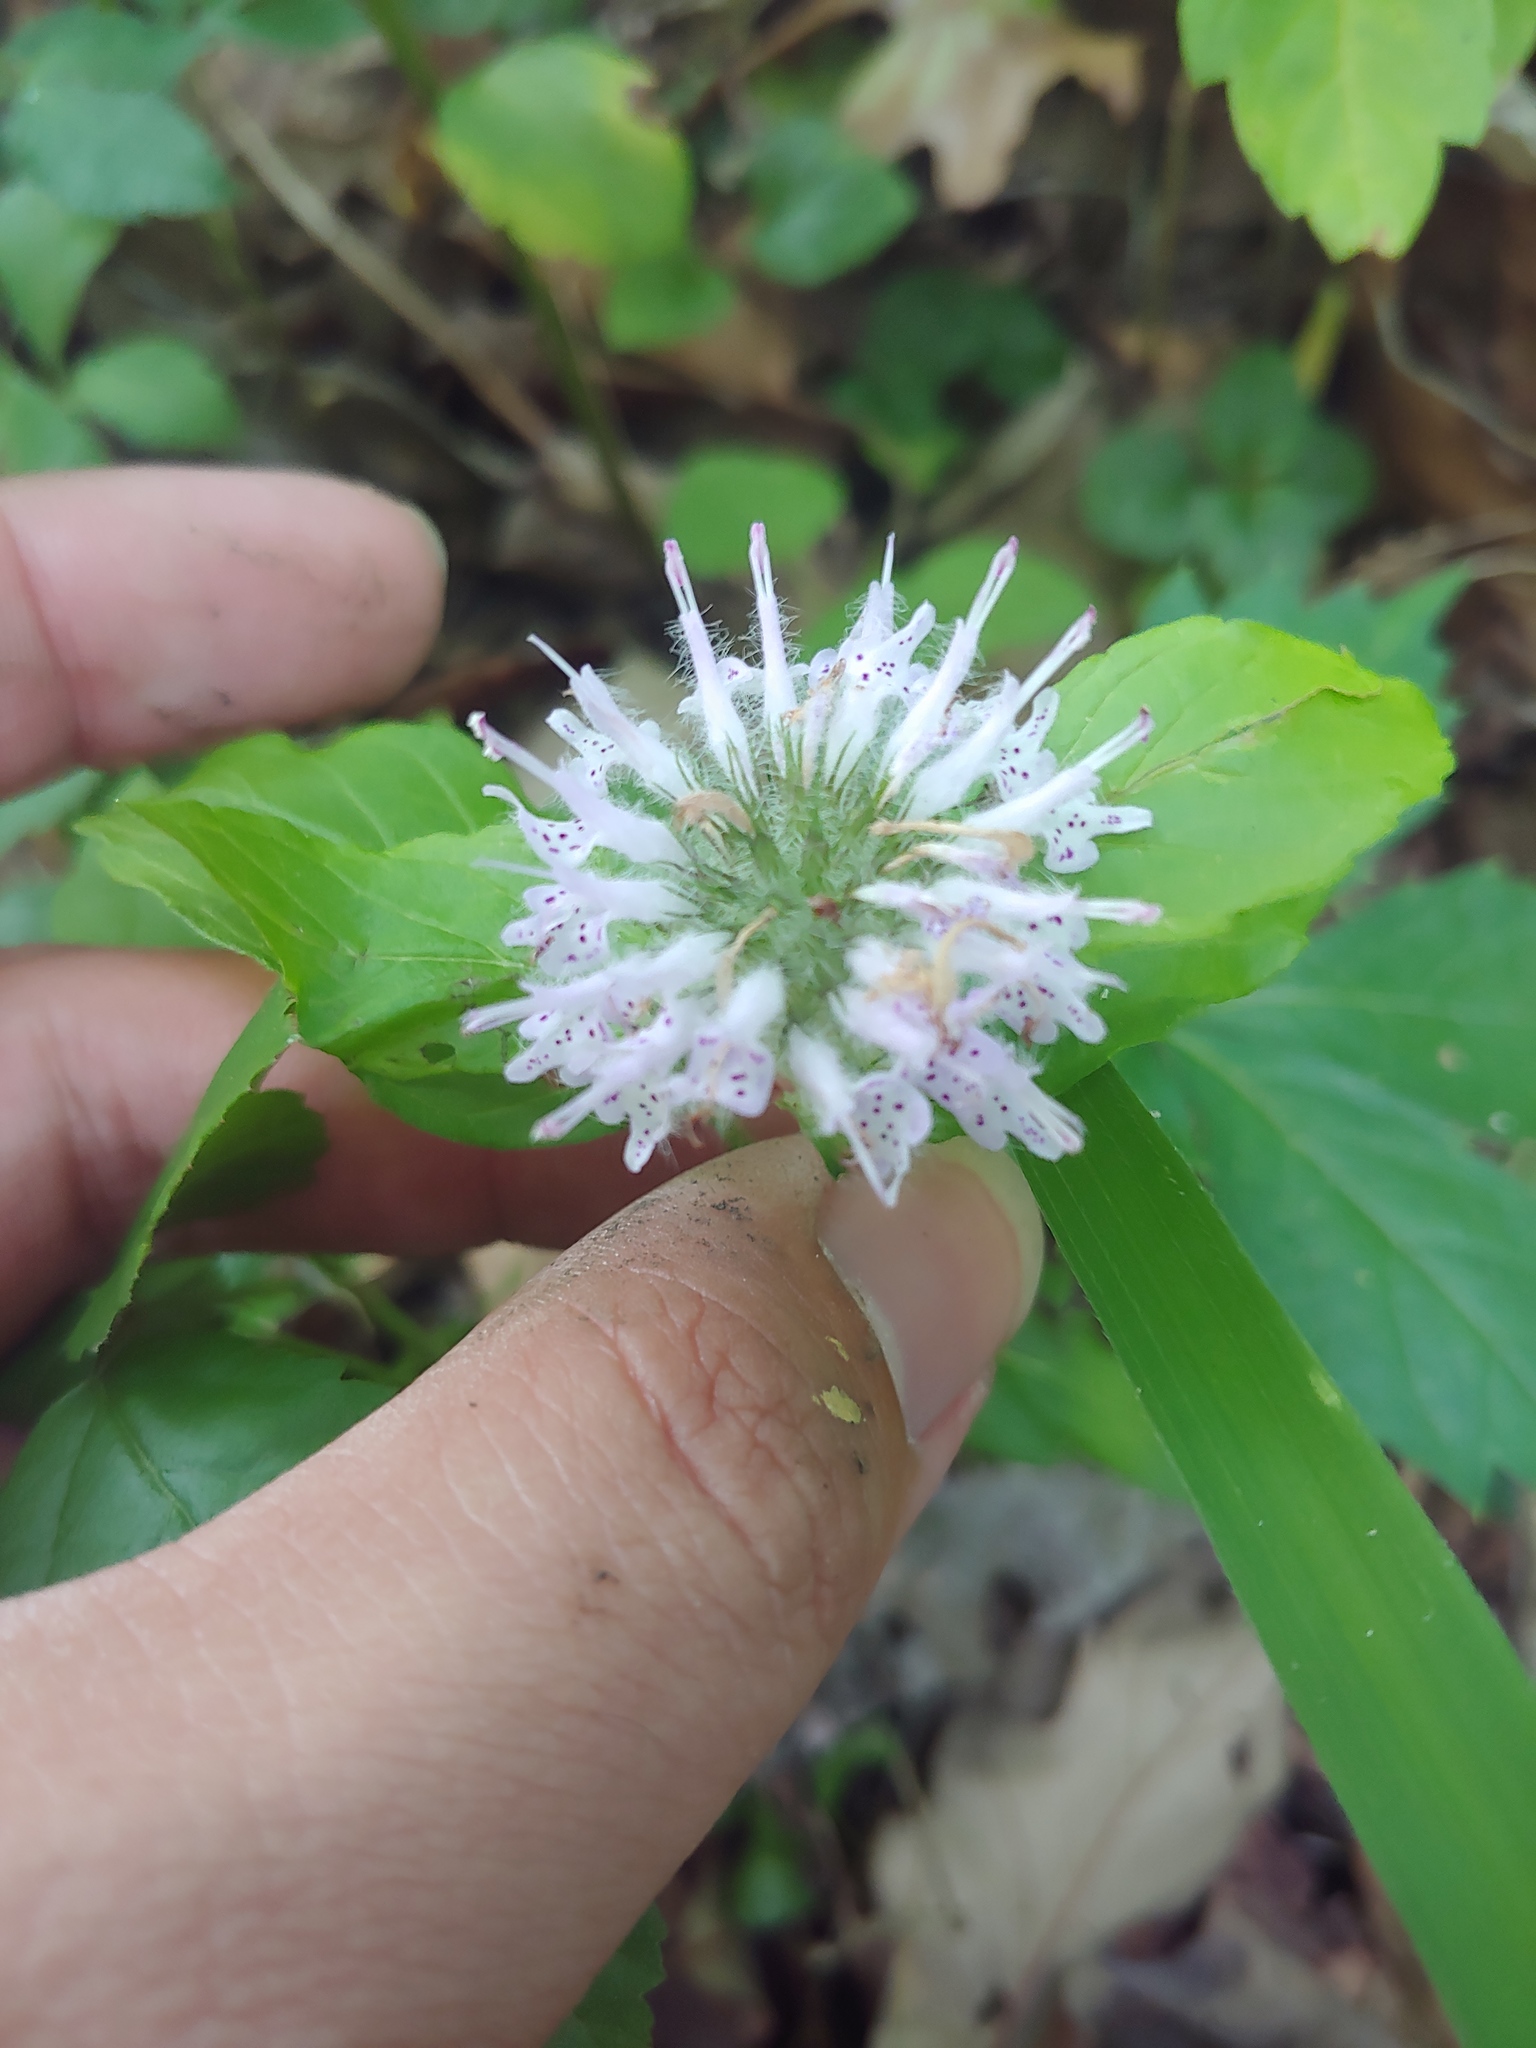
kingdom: Plantae
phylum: Tracheophyta
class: Magnoliopsida
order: Lamiales
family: Lamiaceae
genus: Blephilia
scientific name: Blephilia ciliata
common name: Downy blephilia
